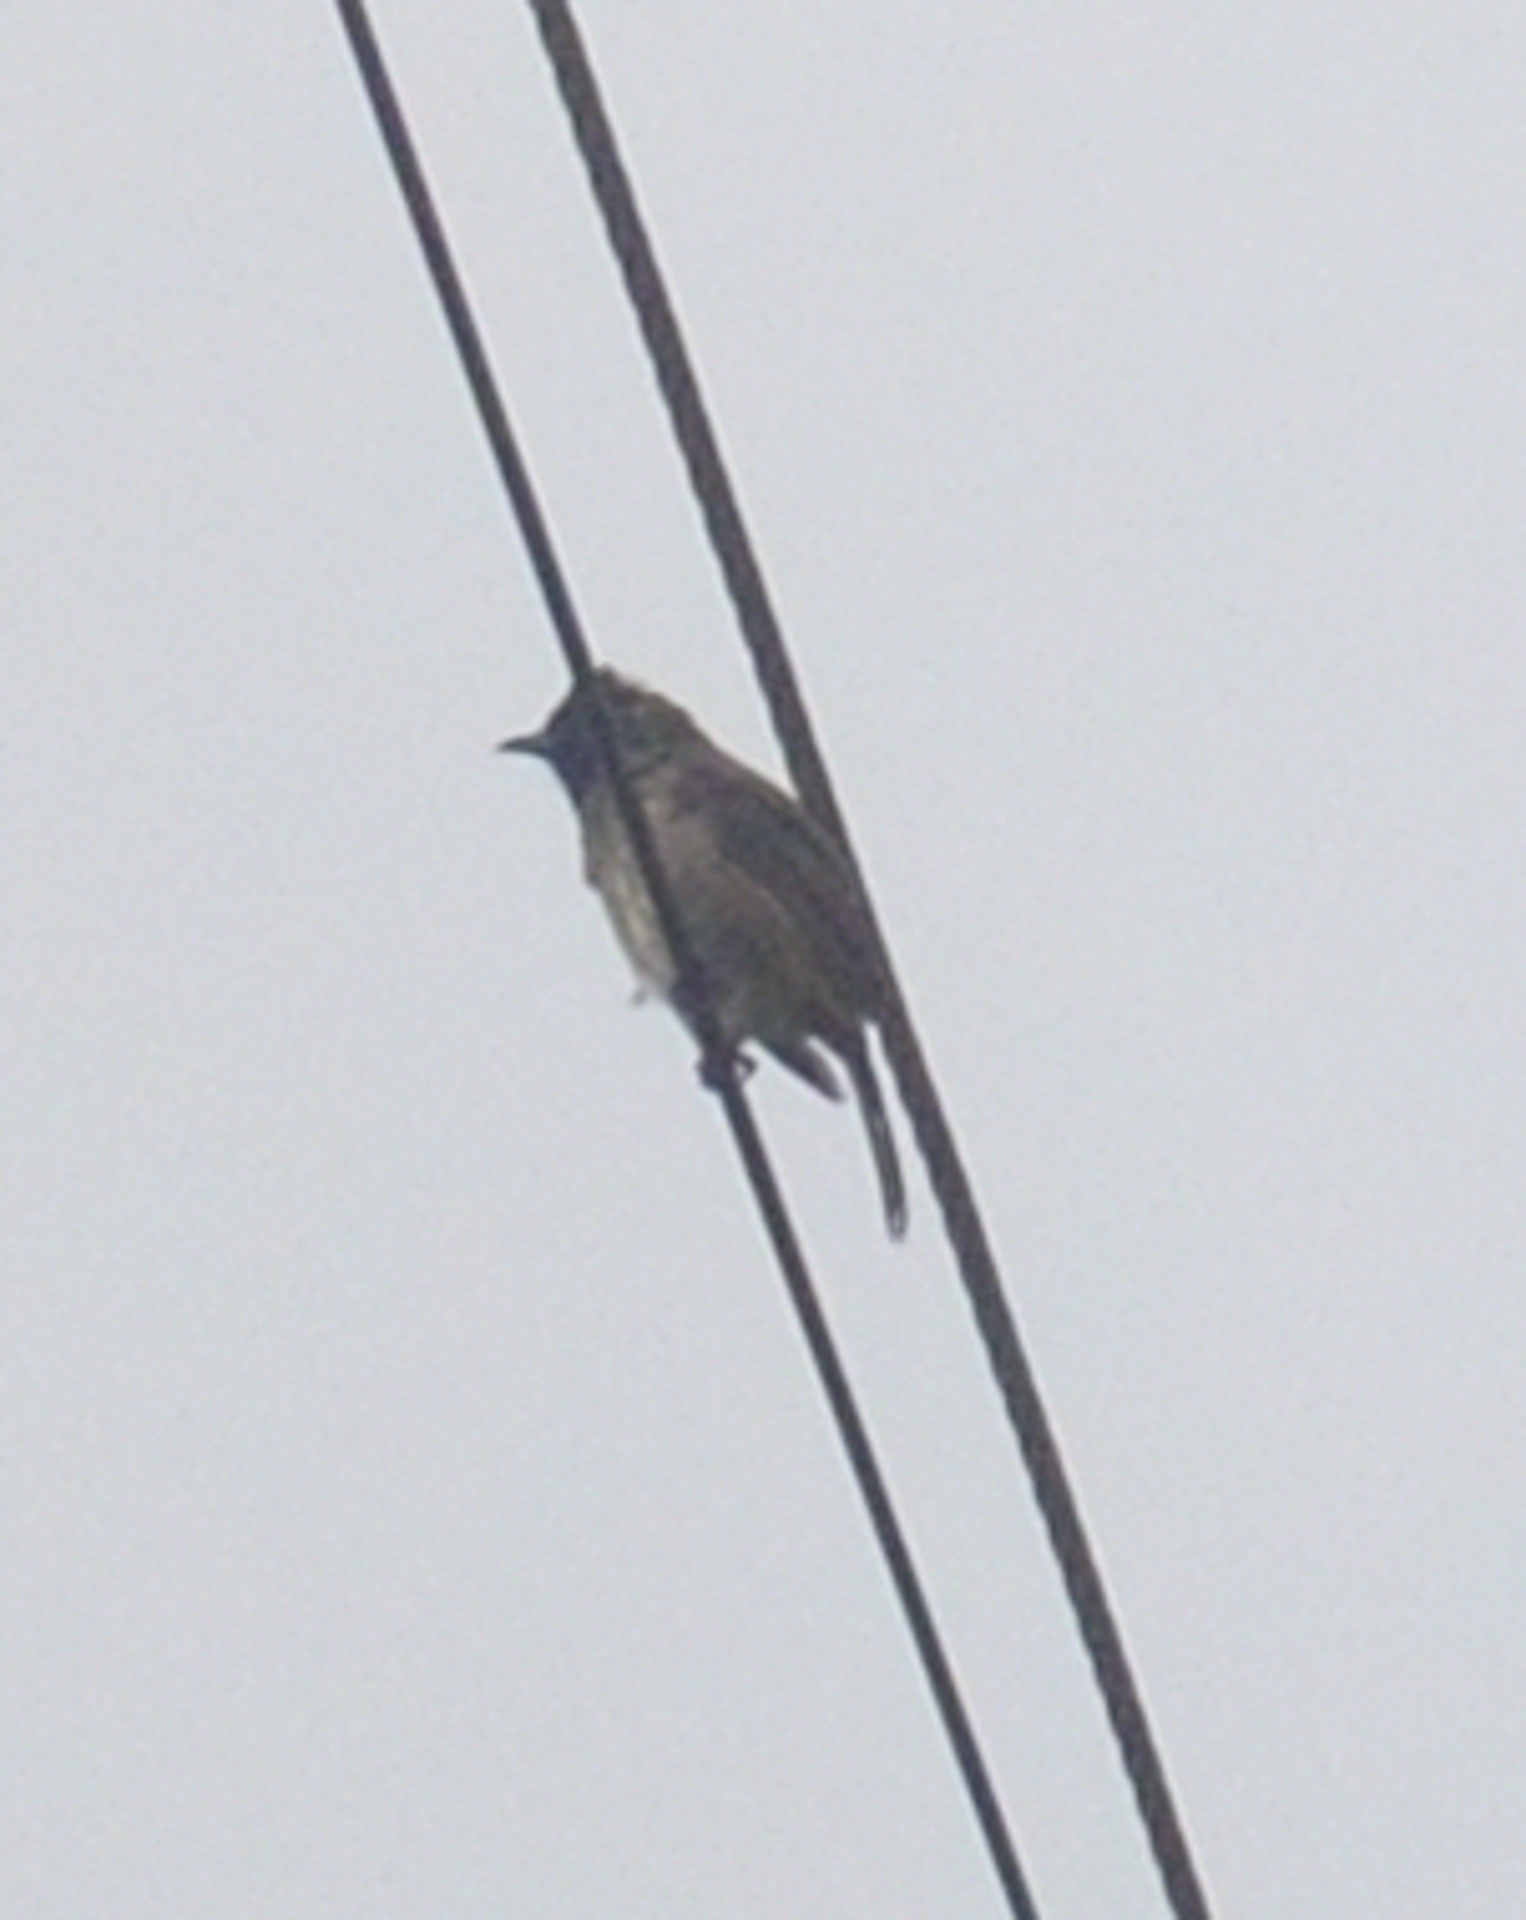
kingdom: Animalia
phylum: Chordata
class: Aves
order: Passeriformes
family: Pycnonotidae
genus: Pycnonotus
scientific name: Pycnonotus cafer
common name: Red-vented bulbul
